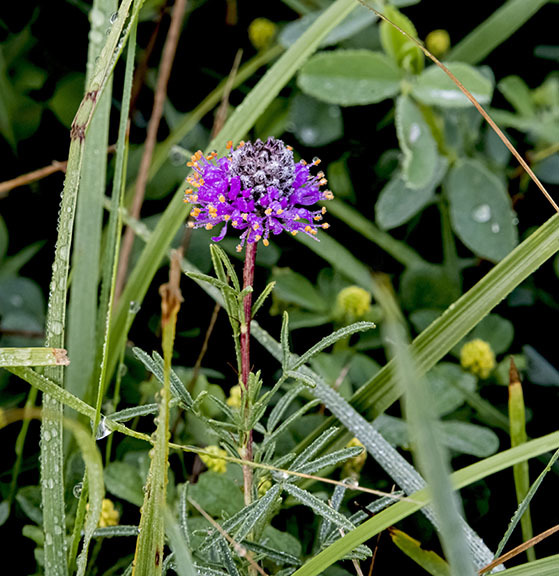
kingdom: Plantae
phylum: Tracheophyta
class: Magnoliopsida
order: Fabales
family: Fabaceae
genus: Dalea
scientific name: Dalea purpurea
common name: Purple prairie-clover
